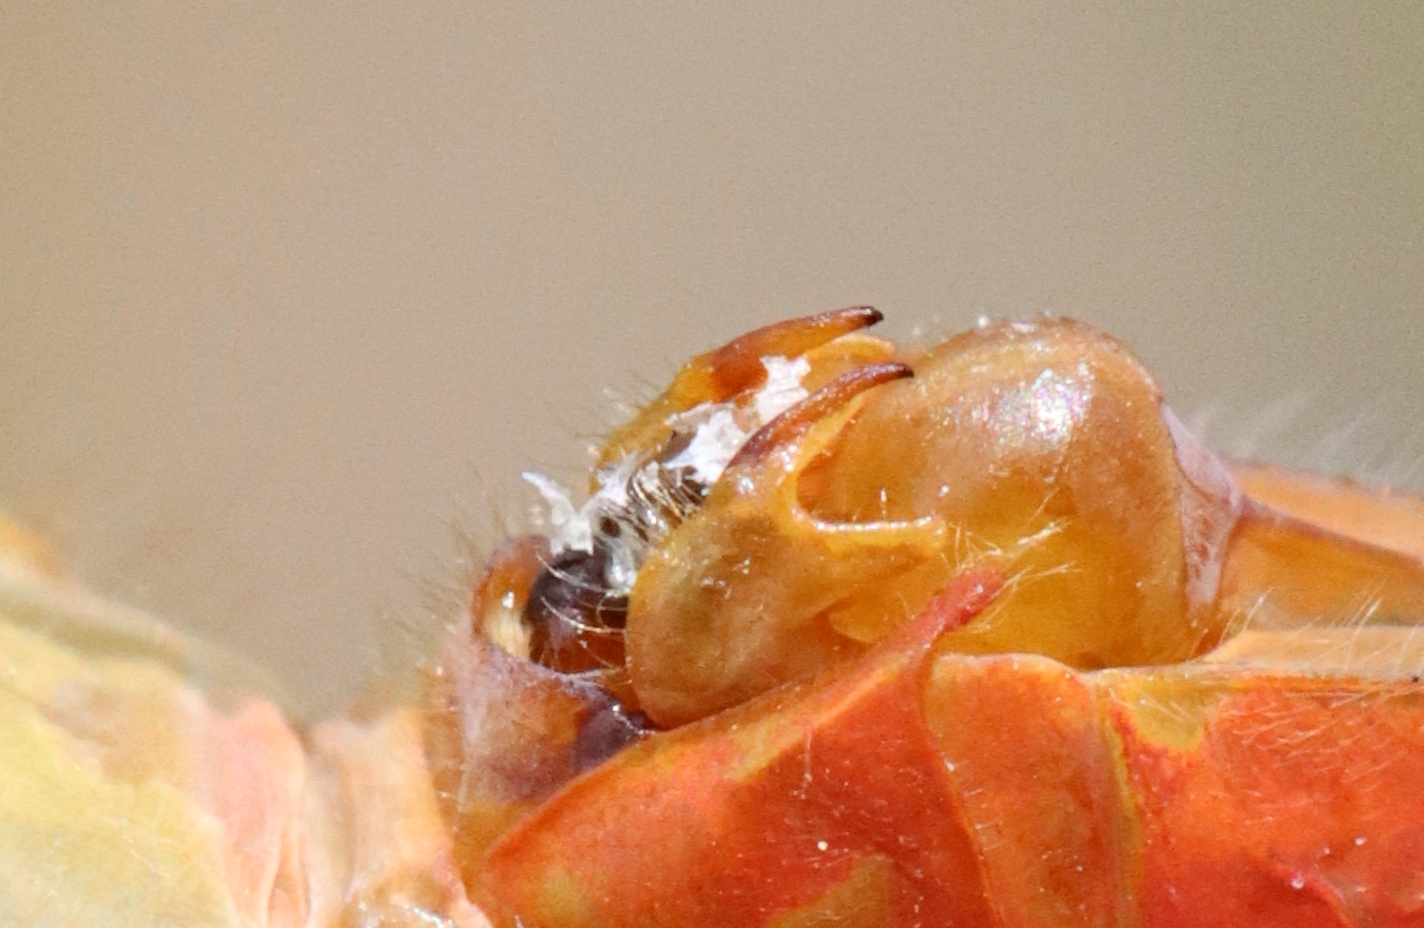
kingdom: Animalia
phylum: Arthropoda
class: Insecta
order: Odonata
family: Libellulidae
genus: Sympetrum
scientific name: Sympetrum rubicundulum
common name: Ruby meadowhawk
